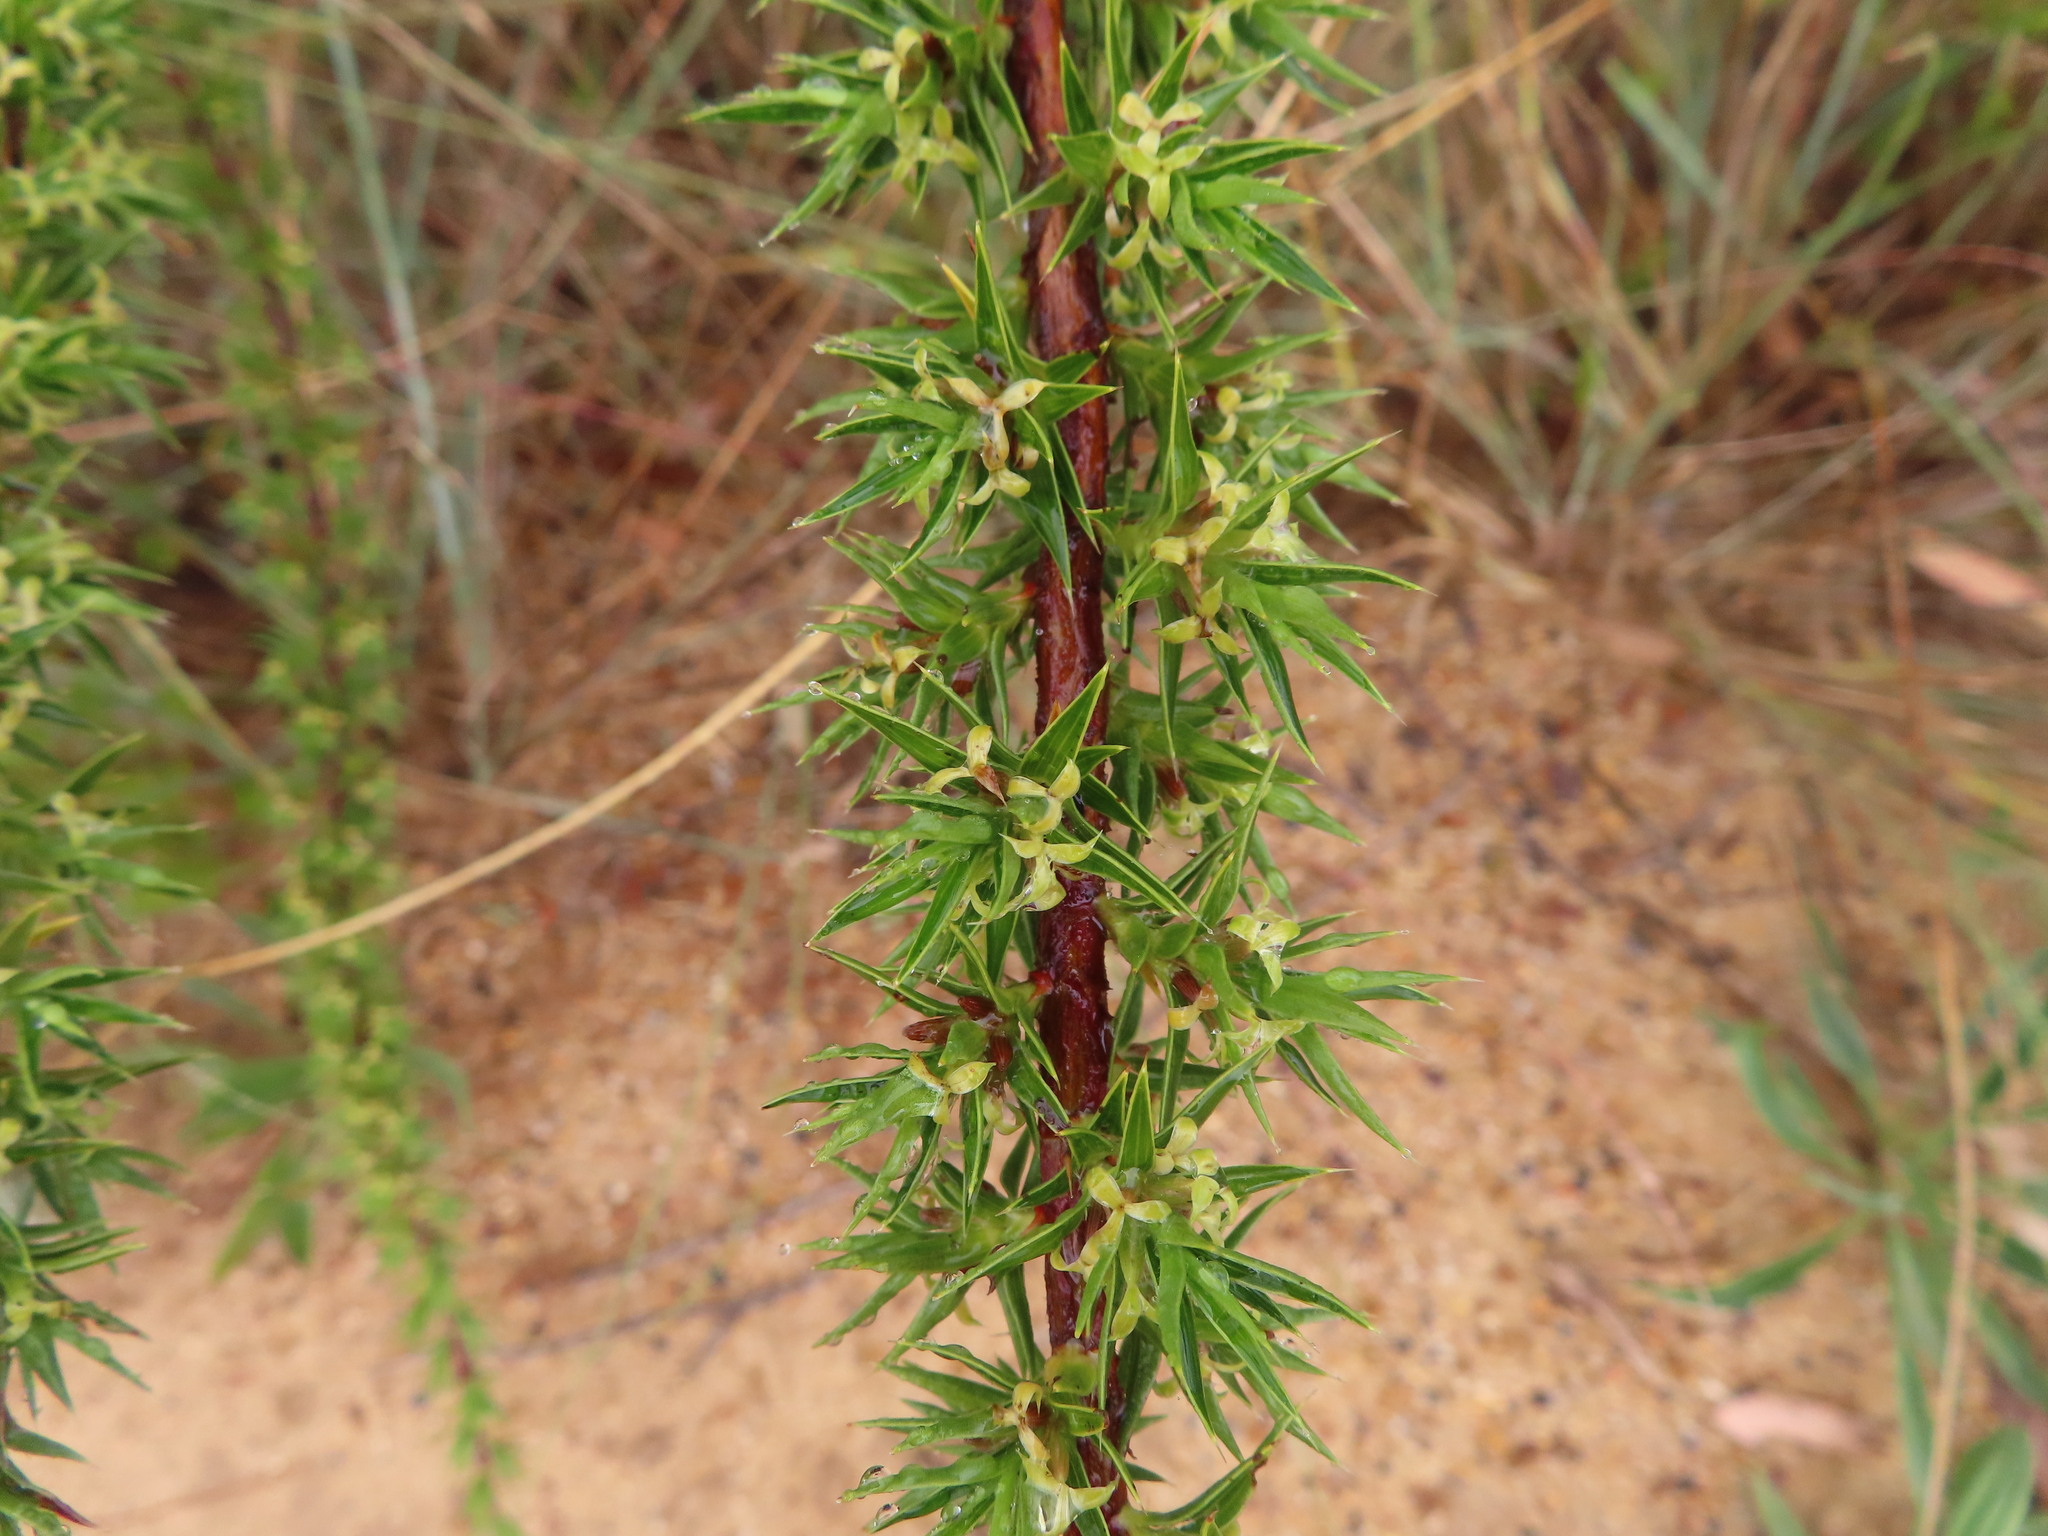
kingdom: Plantae
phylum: Tracheophyta
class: Magnoliopsida
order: Rosales
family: Rosaceae
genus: Cliffortia
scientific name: Cliffortia ruscifolia
